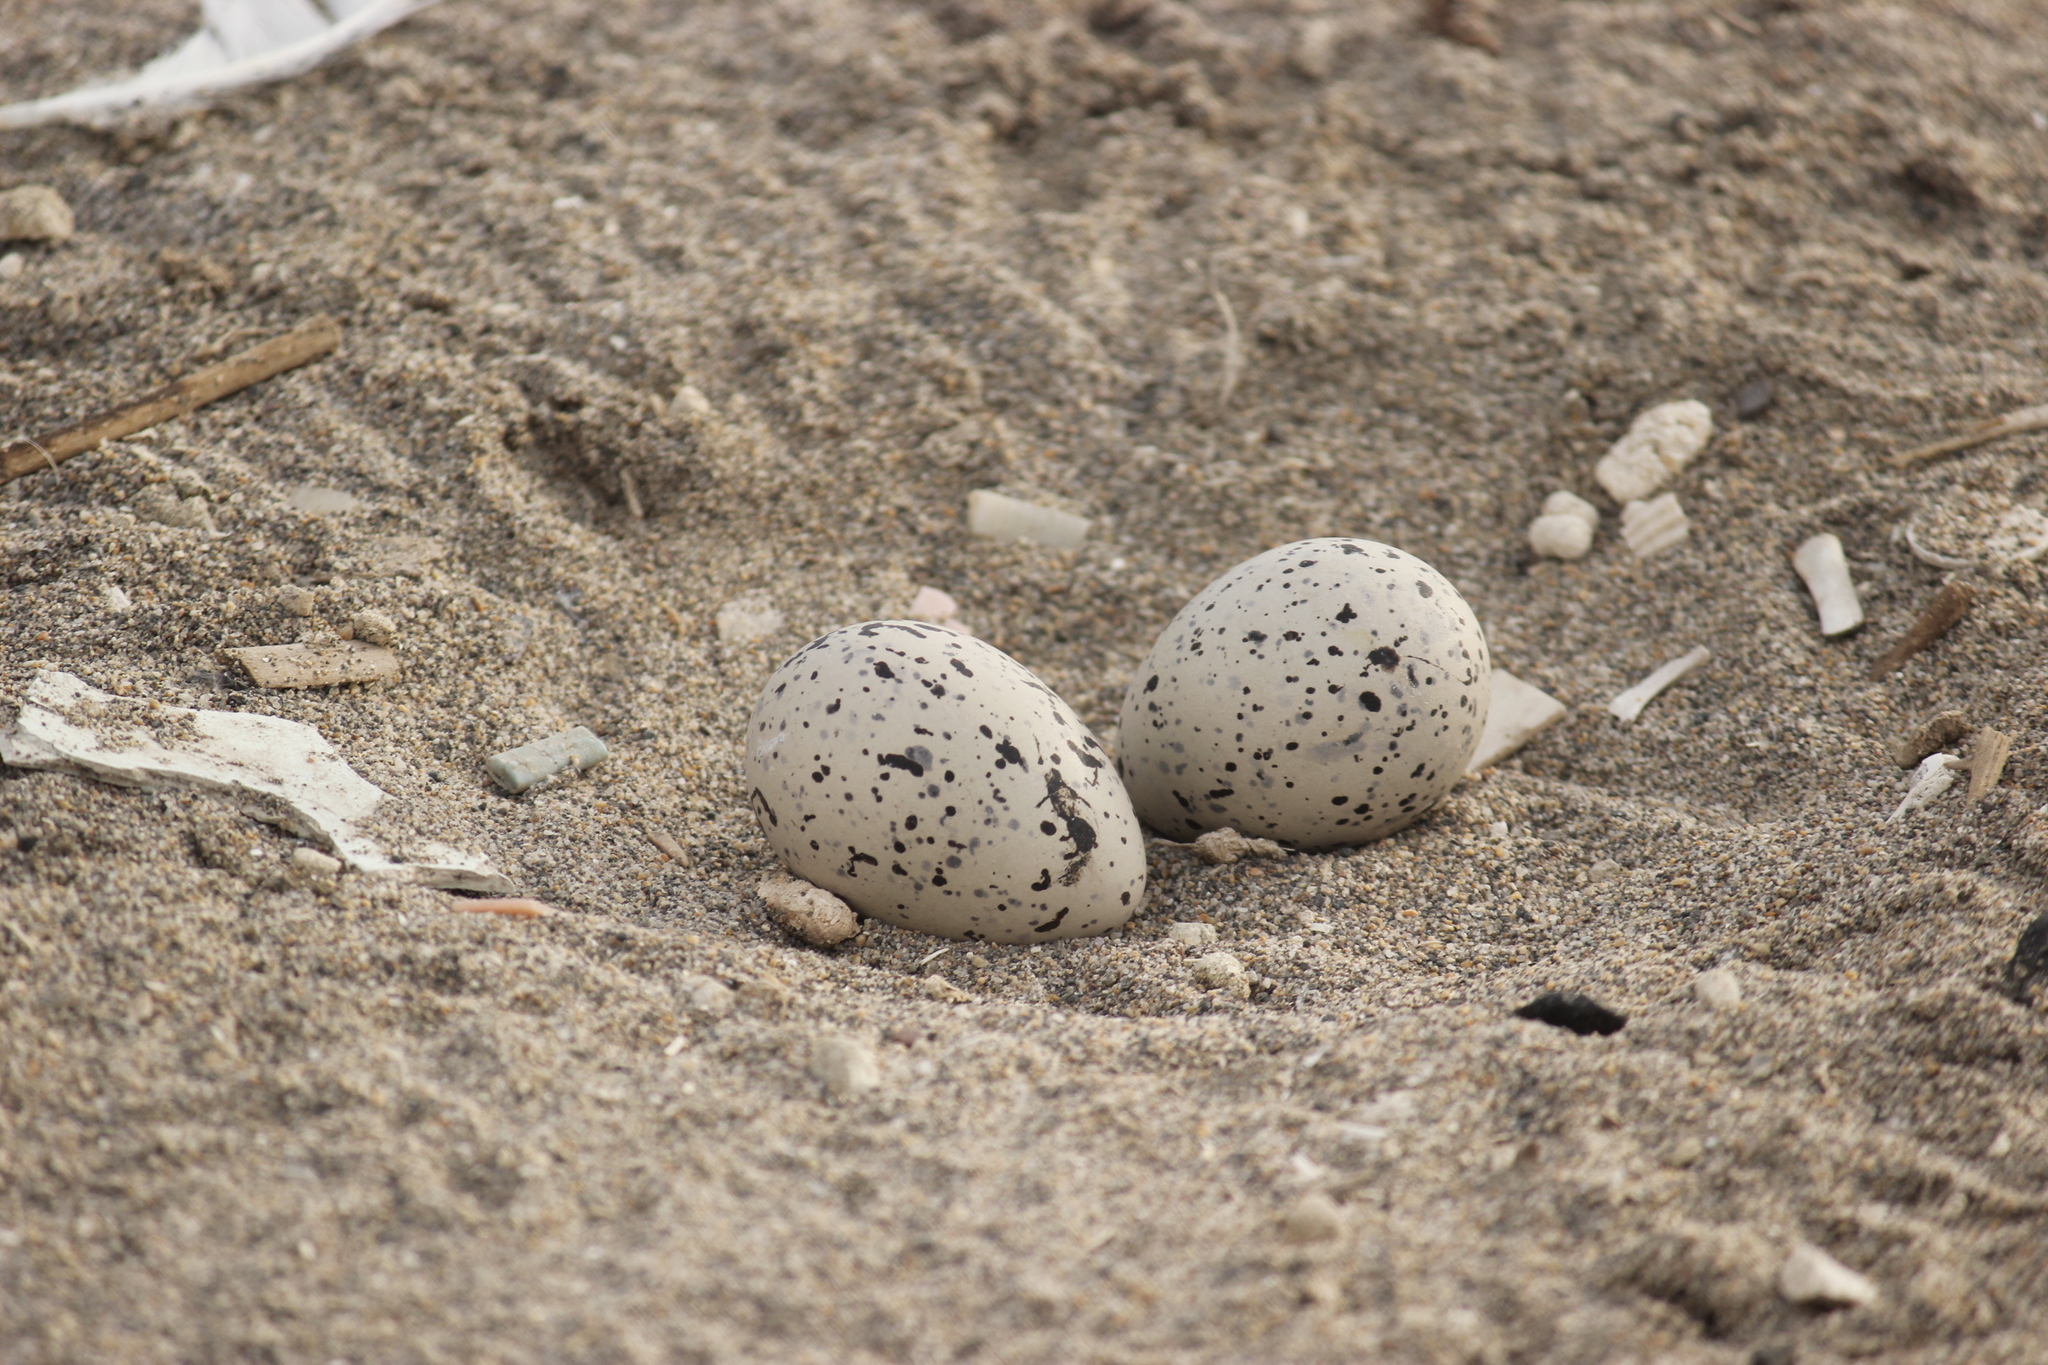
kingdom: Animalia
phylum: Chordata
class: Aves
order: Charadriiformes
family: Haematopodidae
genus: Haematopus
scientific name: Haematopus palliatus
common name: American oystercatcher
